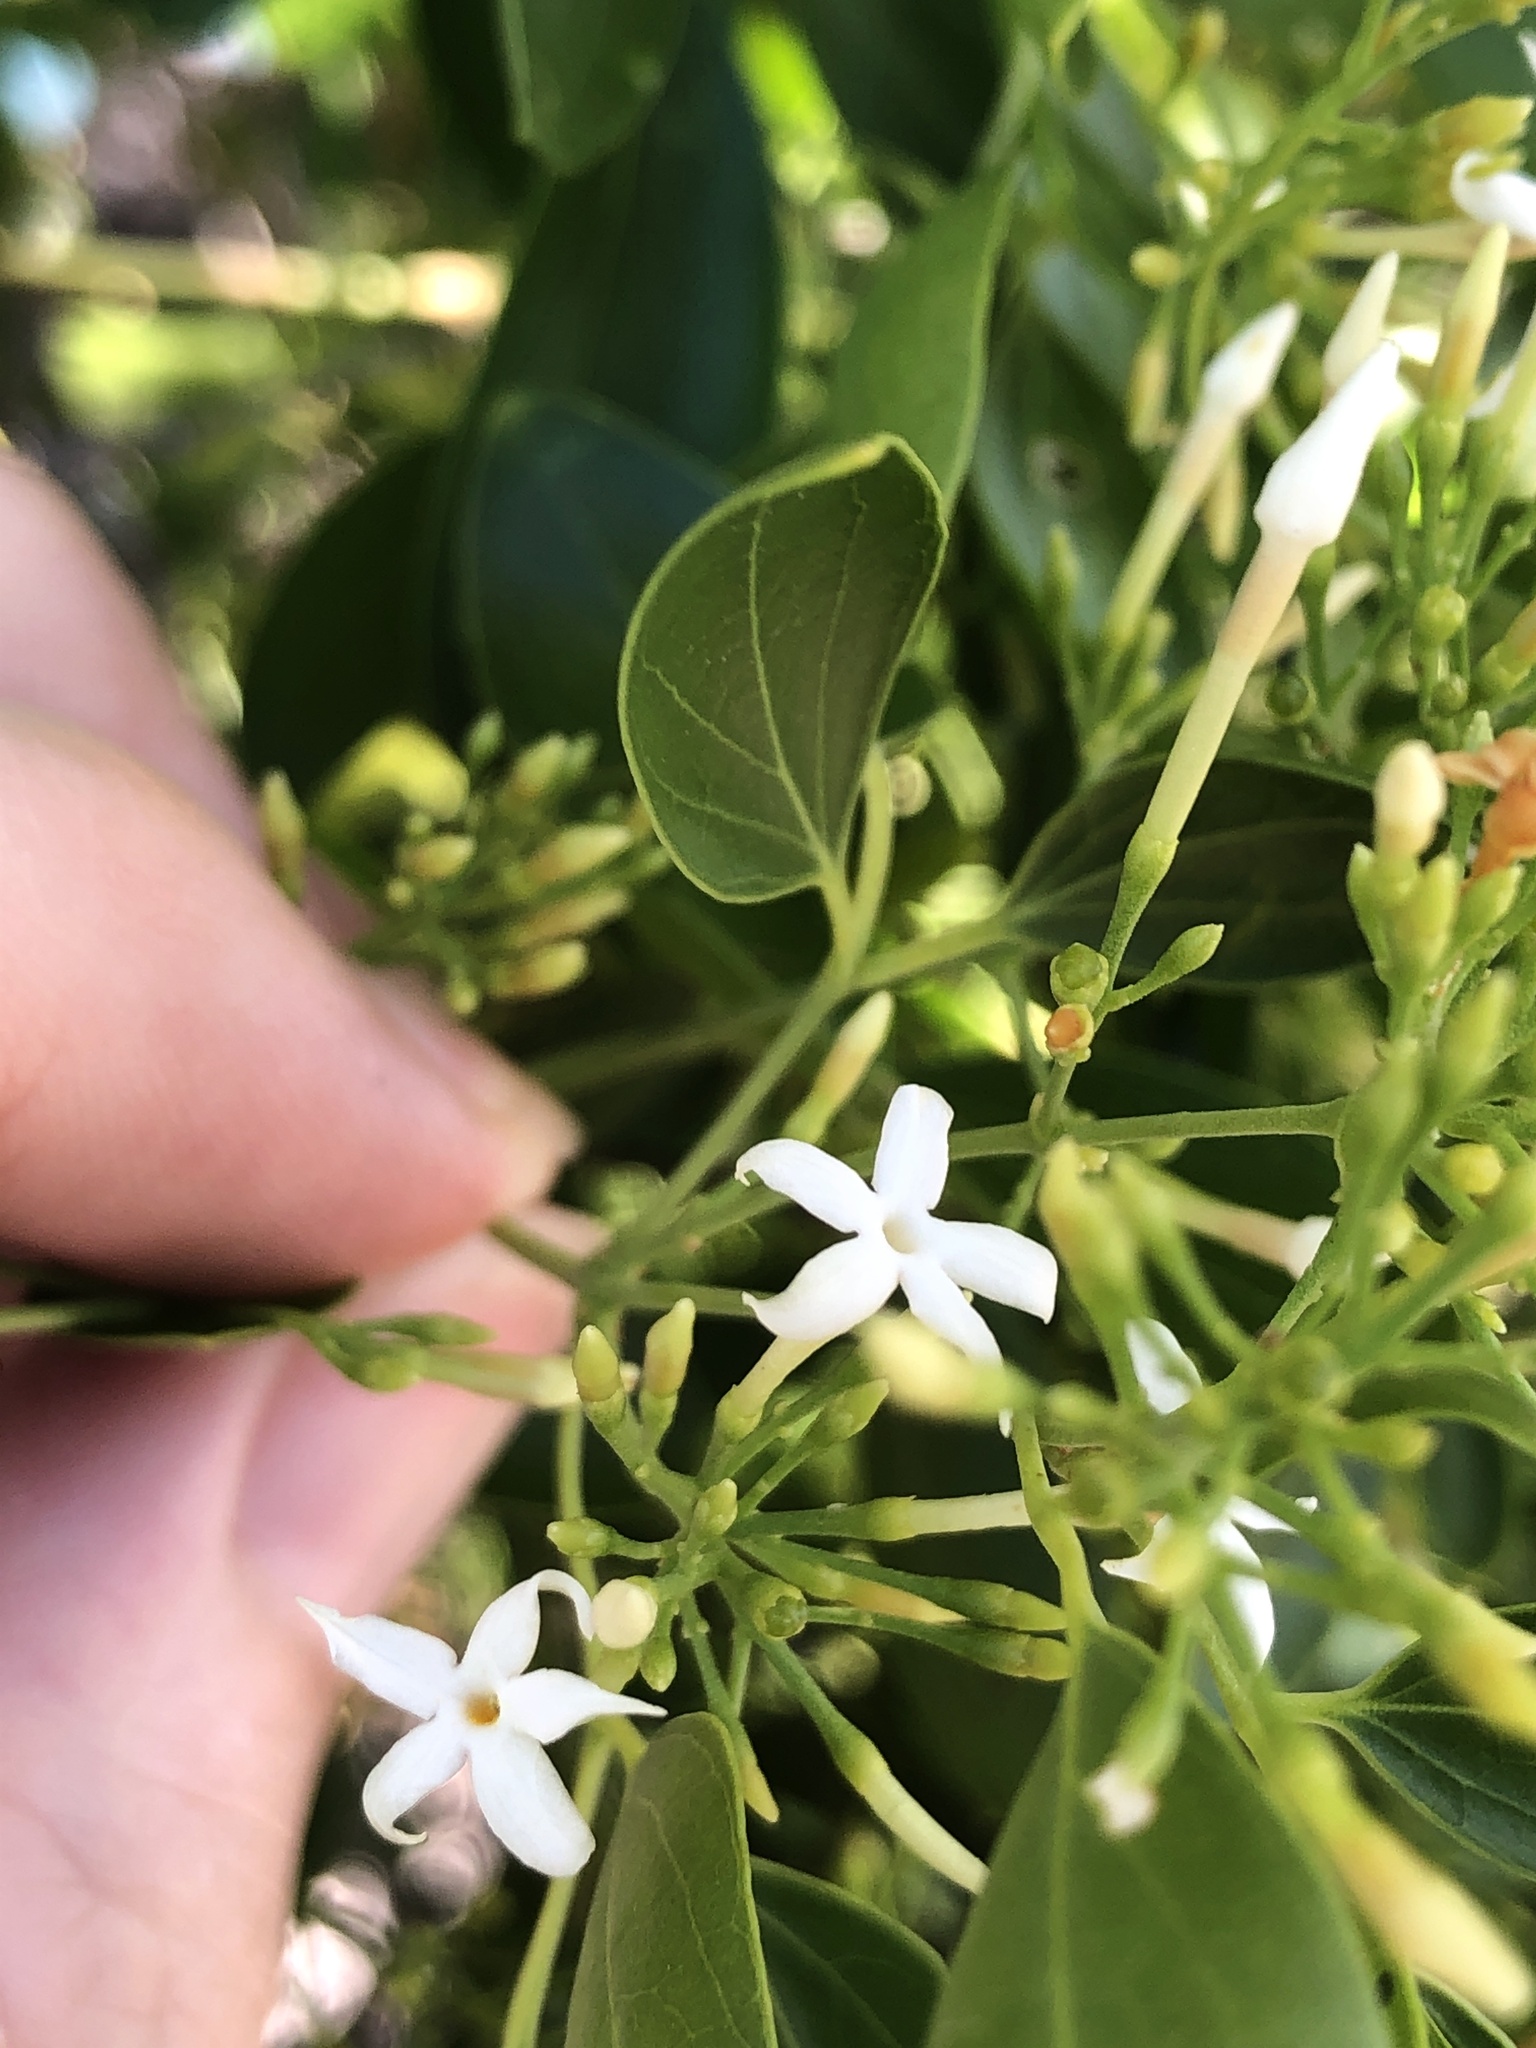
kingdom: Plantae
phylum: Tracheophyta
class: Magnoliopsida
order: Lamiales
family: Oleaceae
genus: Jasminum
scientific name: Jasminum didymum
